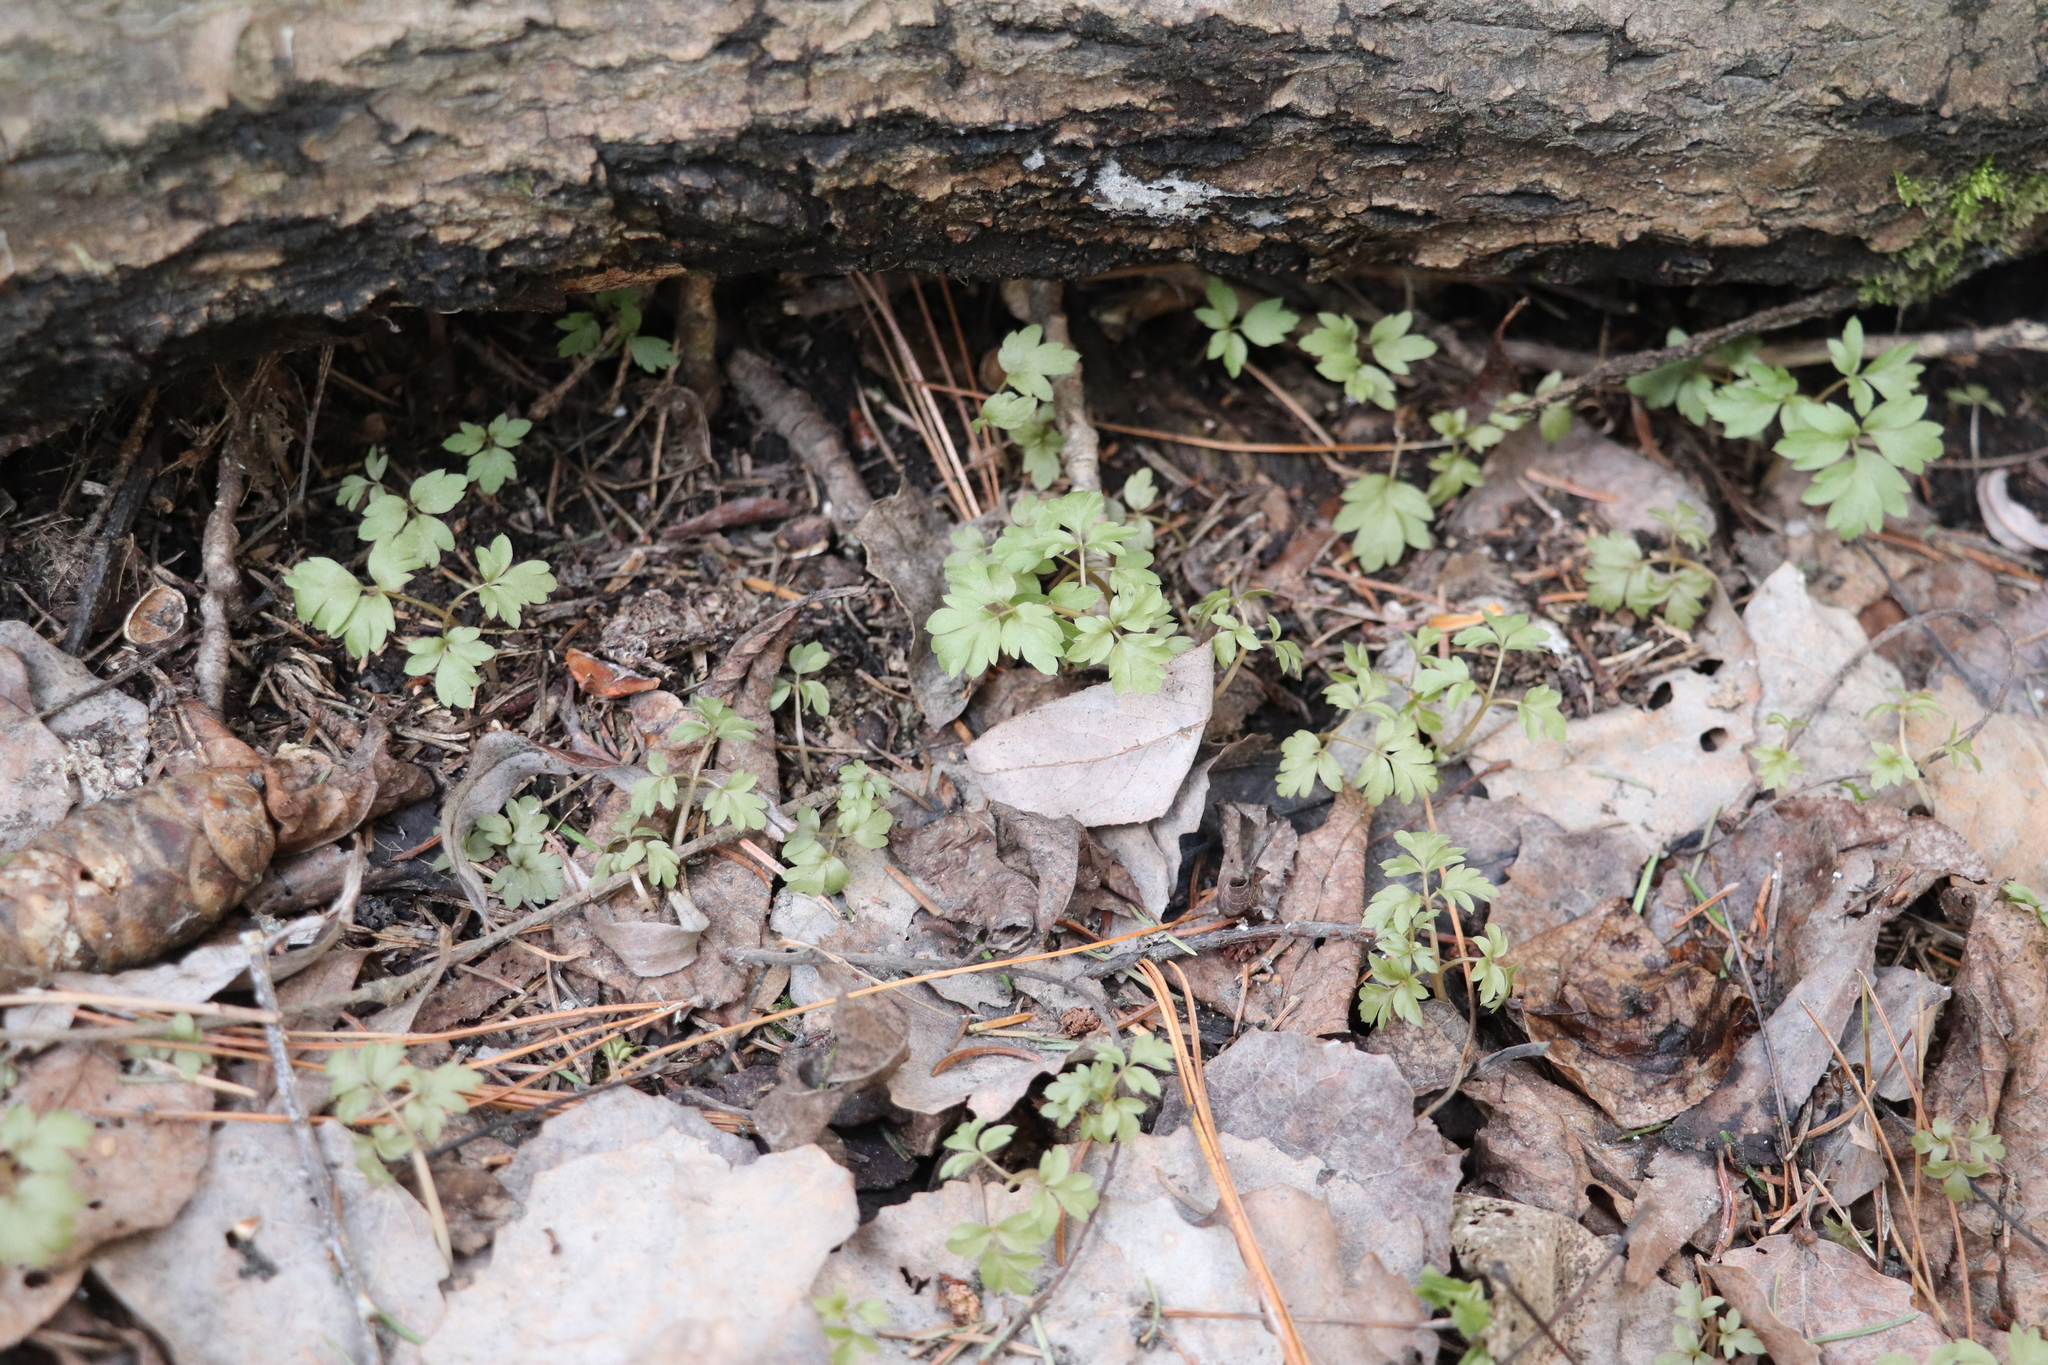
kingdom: Plantae
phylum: Tracheophyta
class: Magnoliopsida
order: Dipsacales
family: Viburnaceae
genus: Adoxa
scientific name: Adoxa moschatellina
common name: Moschatel
